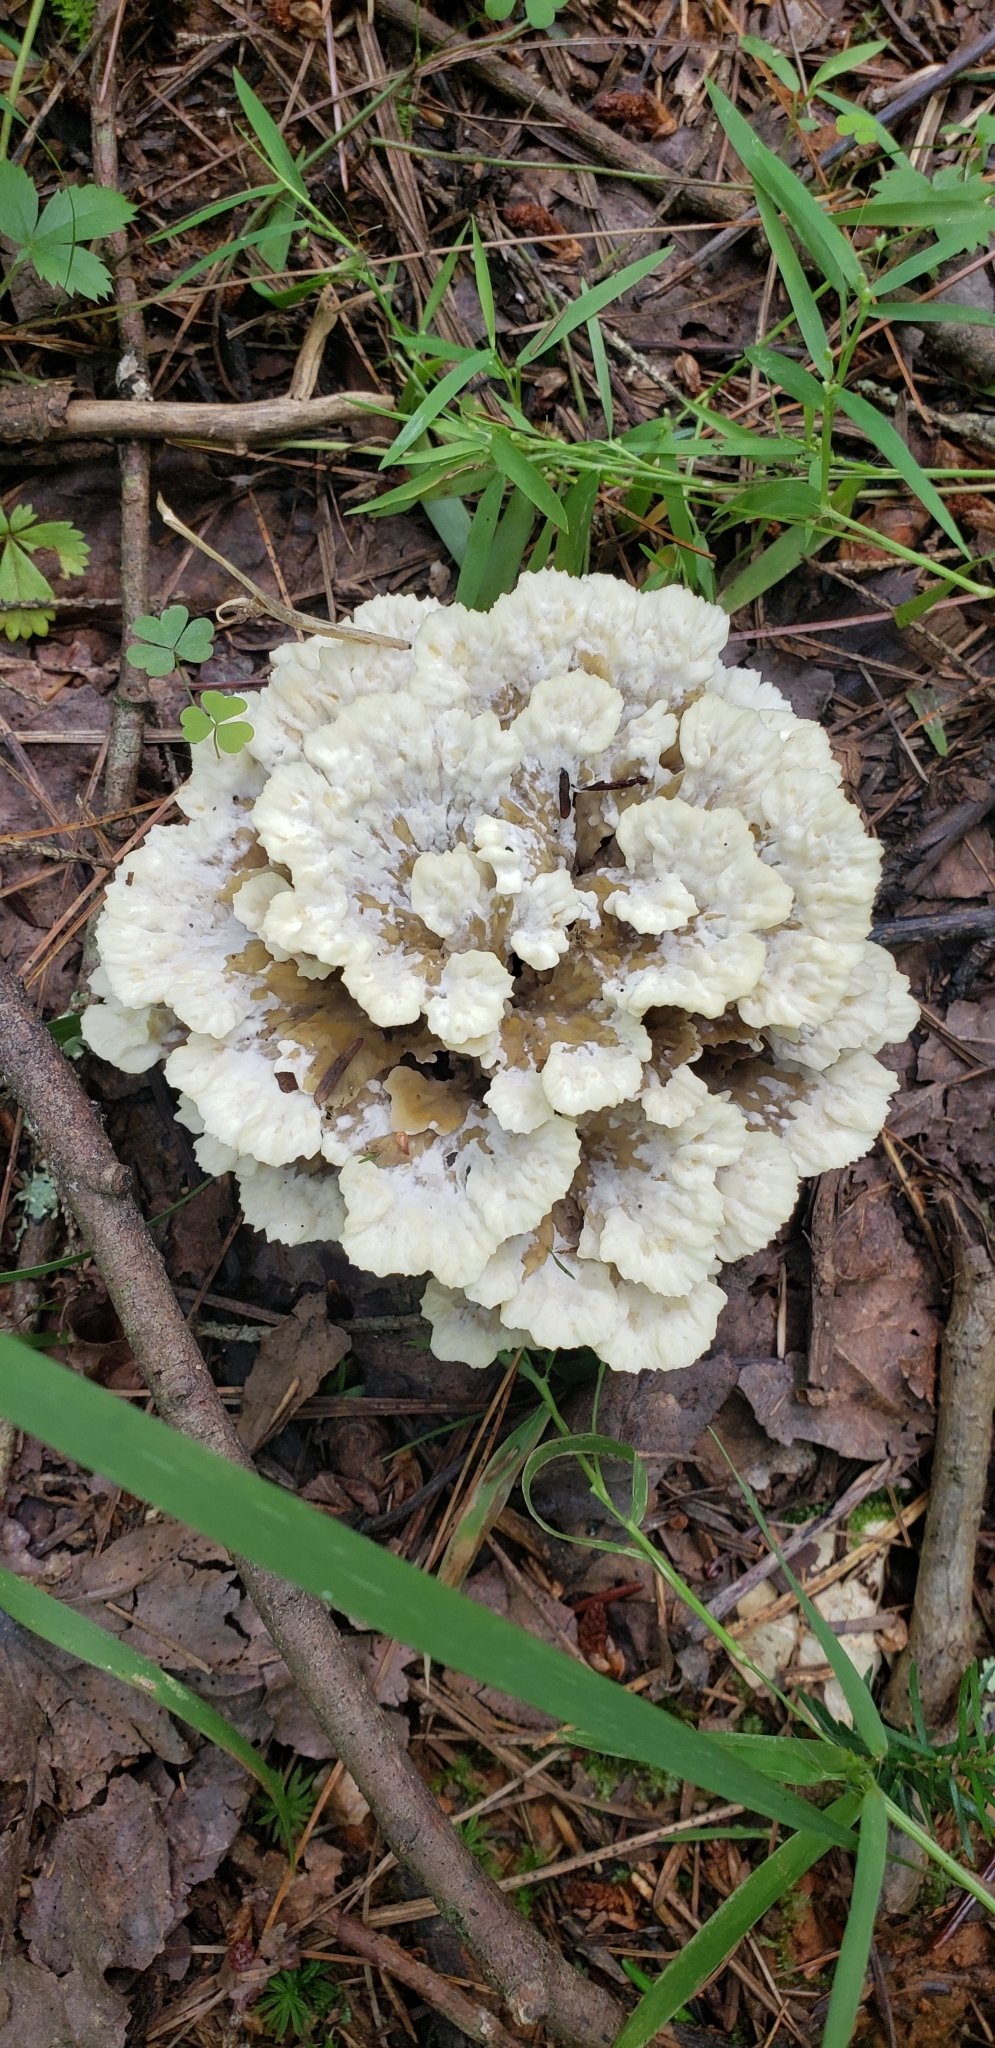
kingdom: Fungi
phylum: Basidiomycota
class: Agaricomycetes
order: Thelephorales
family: Thelephoraceae
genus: Thelephora
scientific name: Thelephora terrestris
